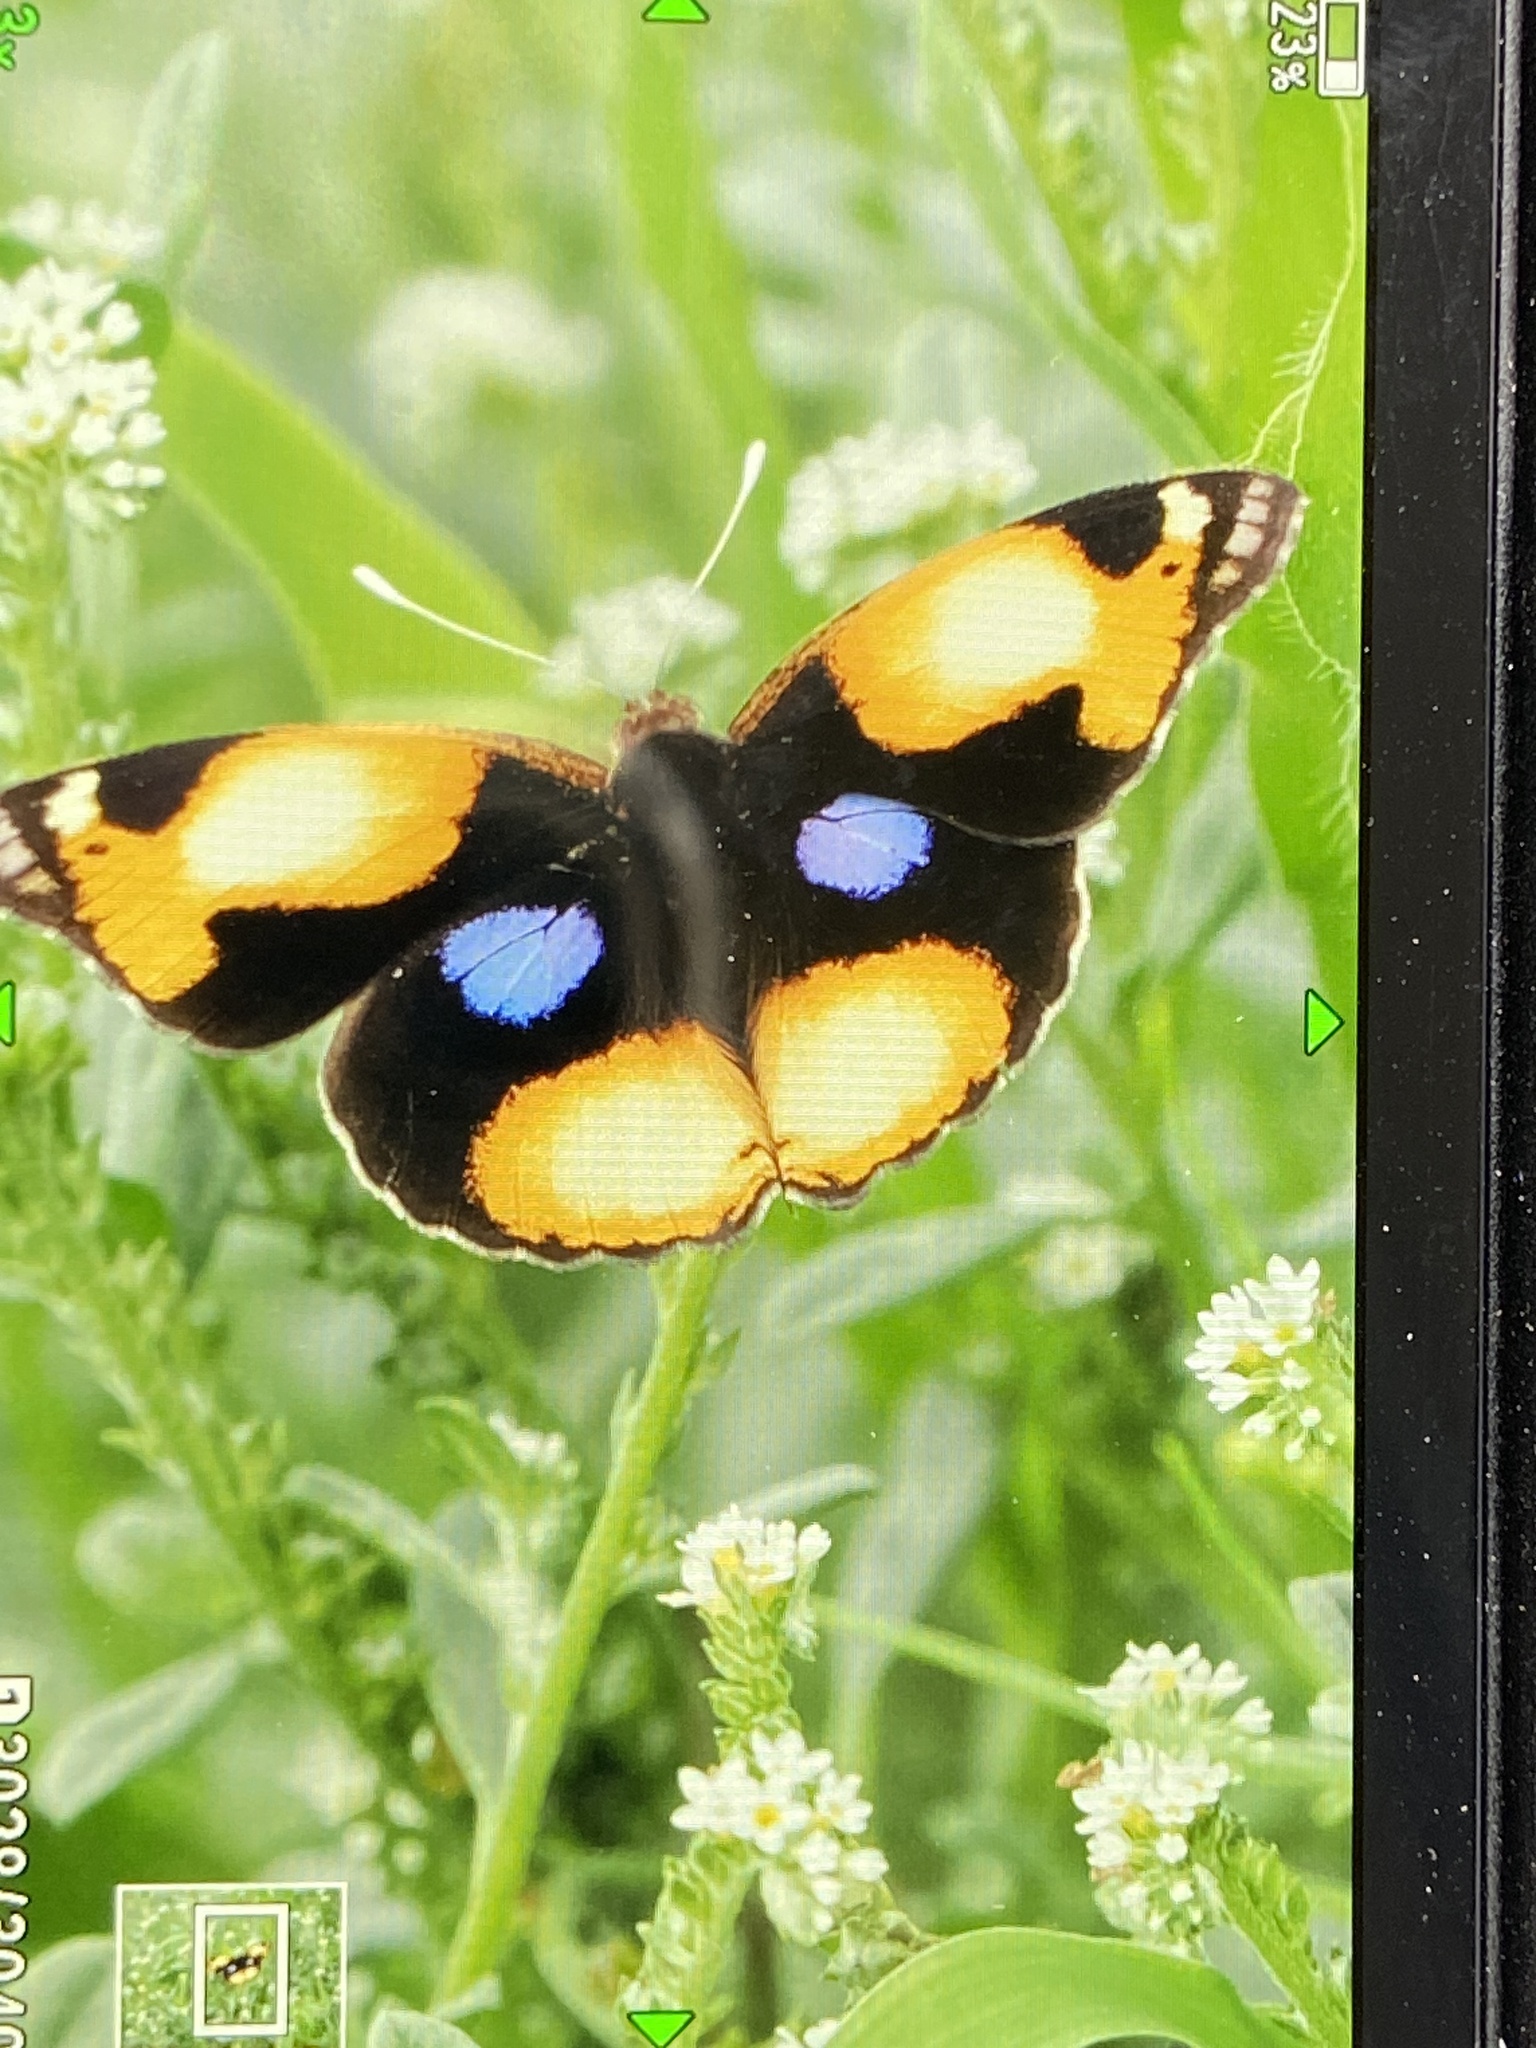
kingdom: Animalia
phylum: Arthropoda
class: Insecta
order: Lepidoptera
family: Nymphalidae
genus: Junonia
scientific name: Junonia hierta
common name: Yellow pansy
